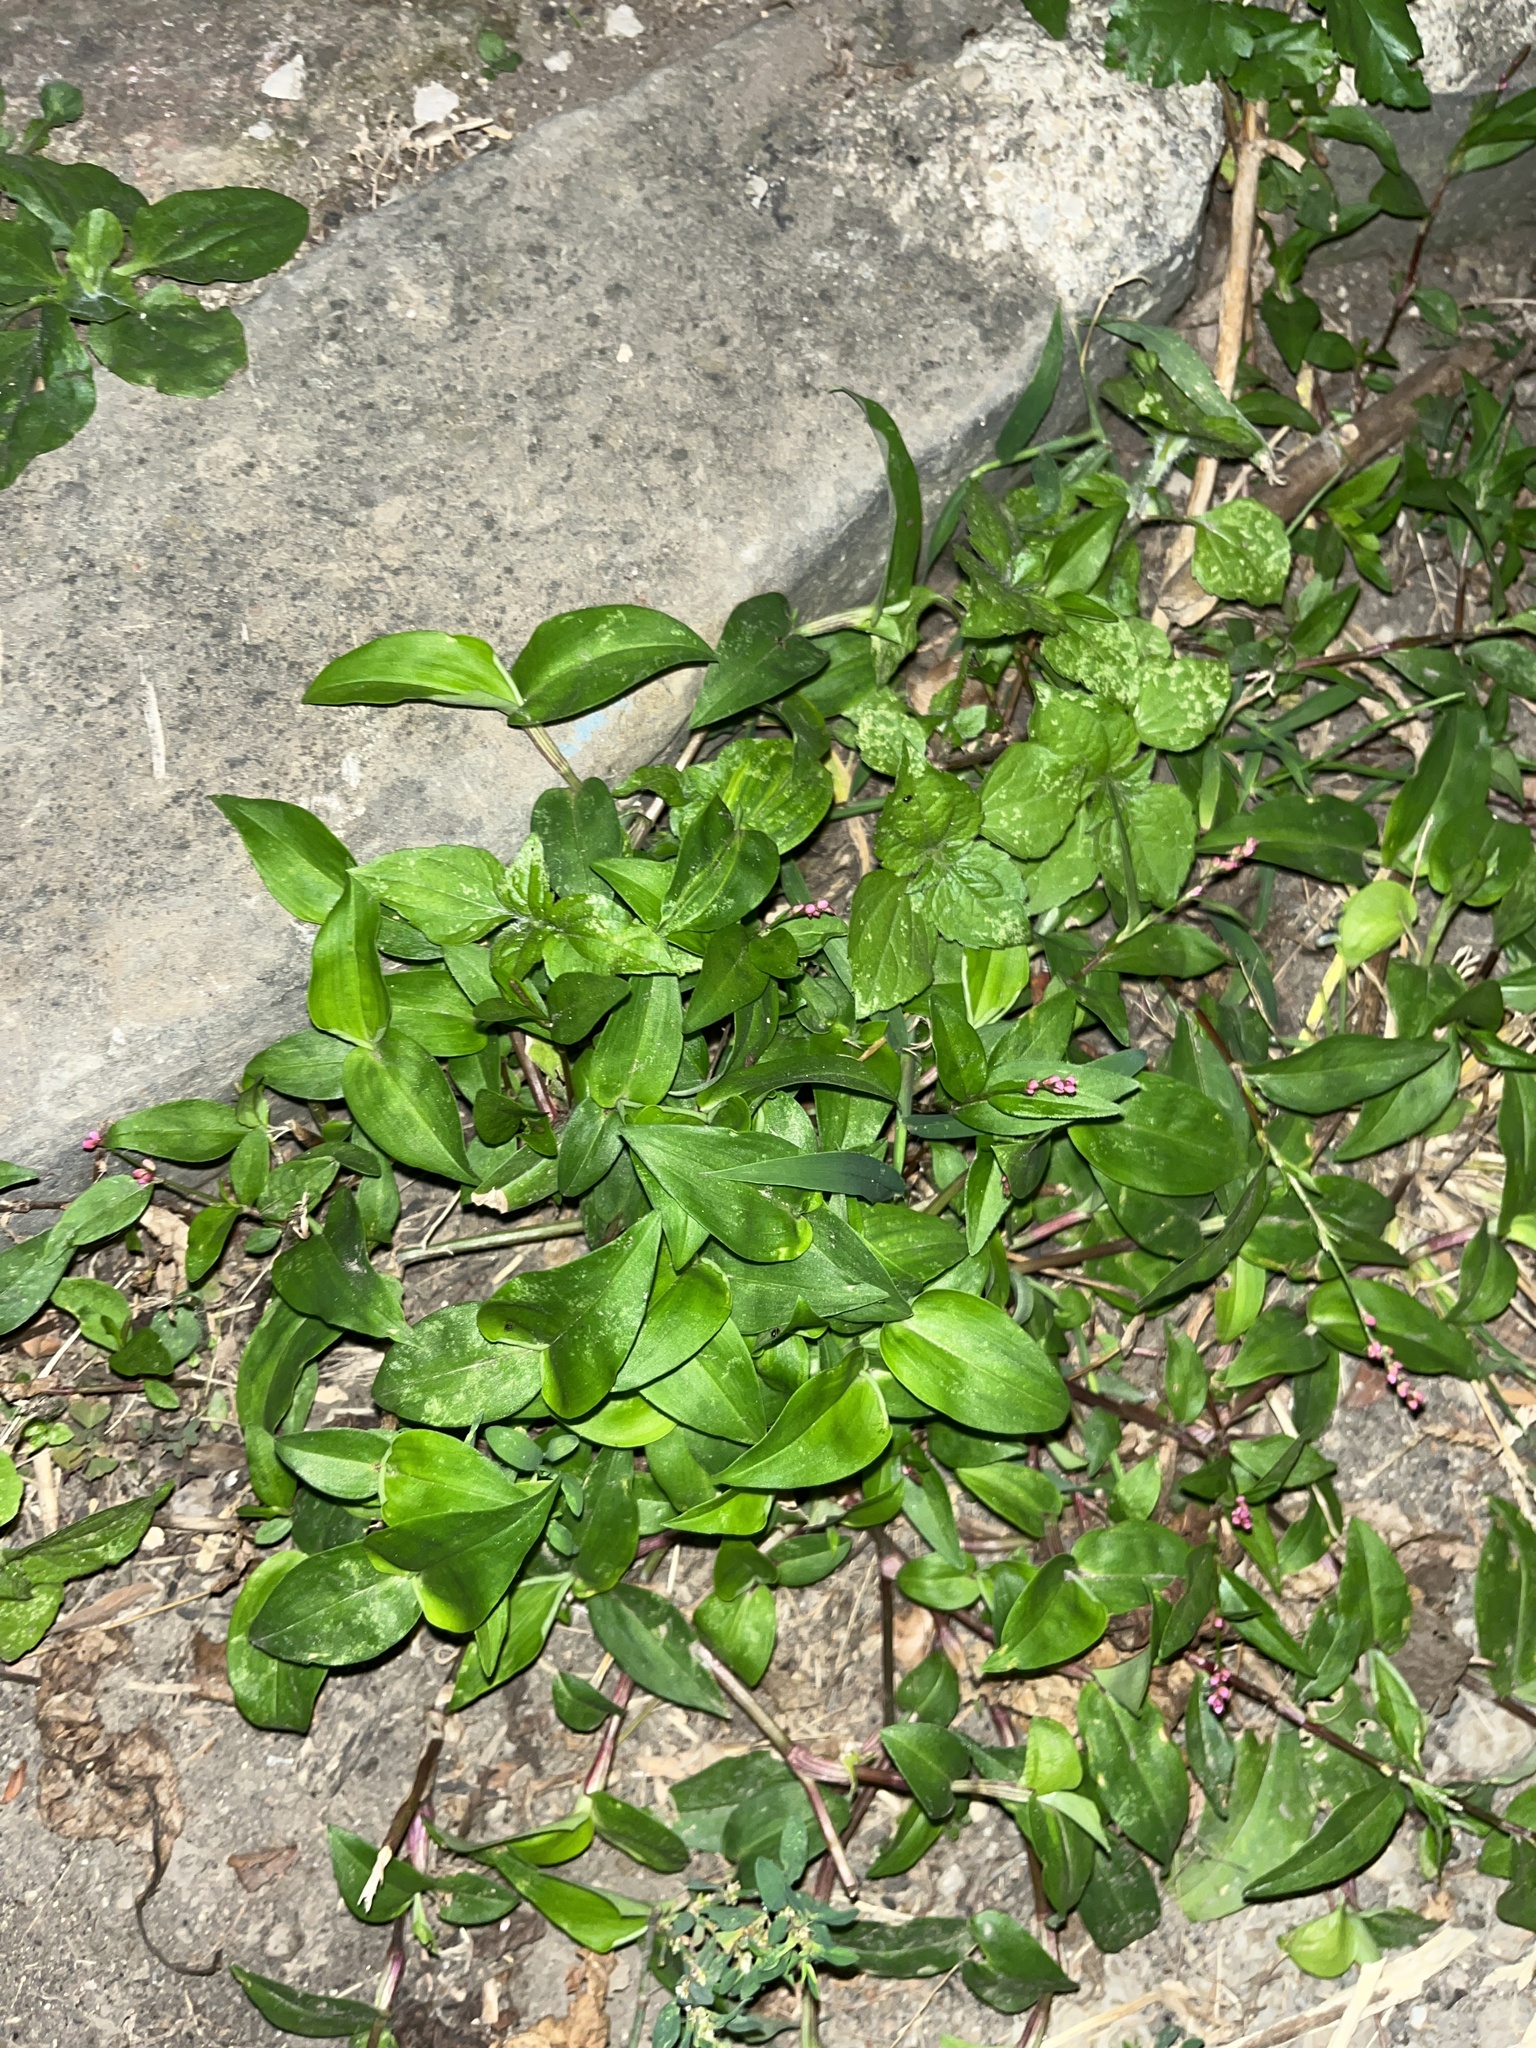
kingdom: Plantae
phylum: Tracheophyta
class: Magnoliopsida
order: Caryophyllales
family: Polygonaceae
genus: Persicaria
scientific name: Persicaria longiseta
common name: Bristly lady's-thumb
